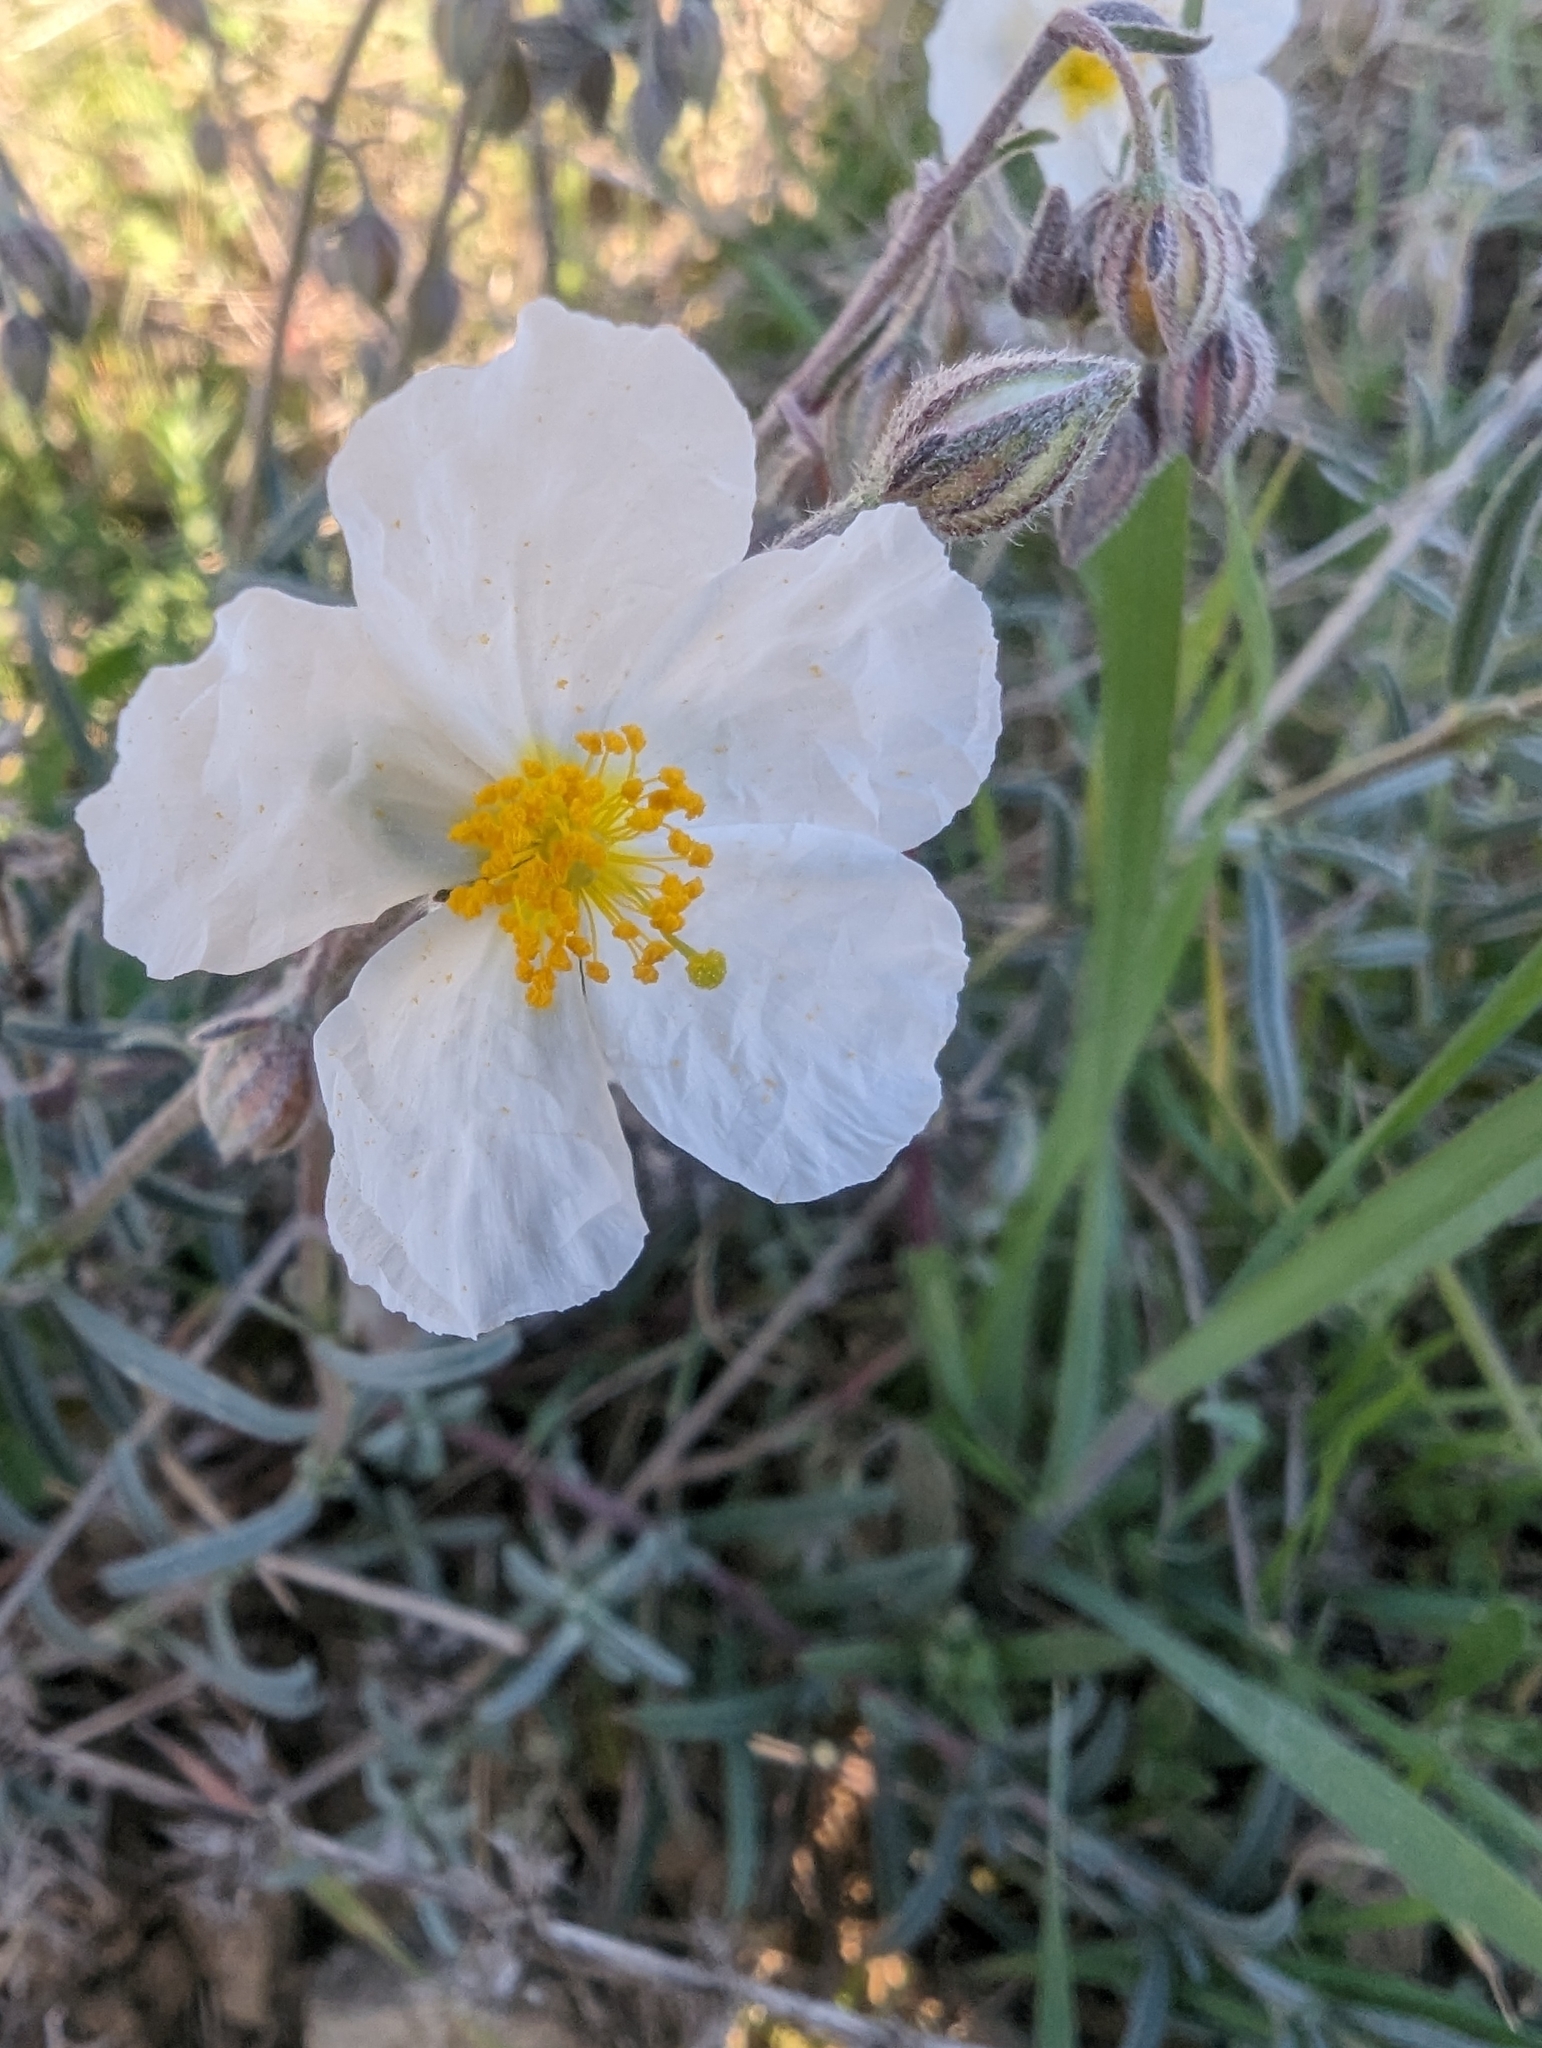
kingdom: Plantae
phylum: Tracheophyta
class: Magnoliopsida
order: Malvales
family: Cistaceae
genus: Helianthemum
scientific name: Helianthemum apenninum
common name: White rock-rose
